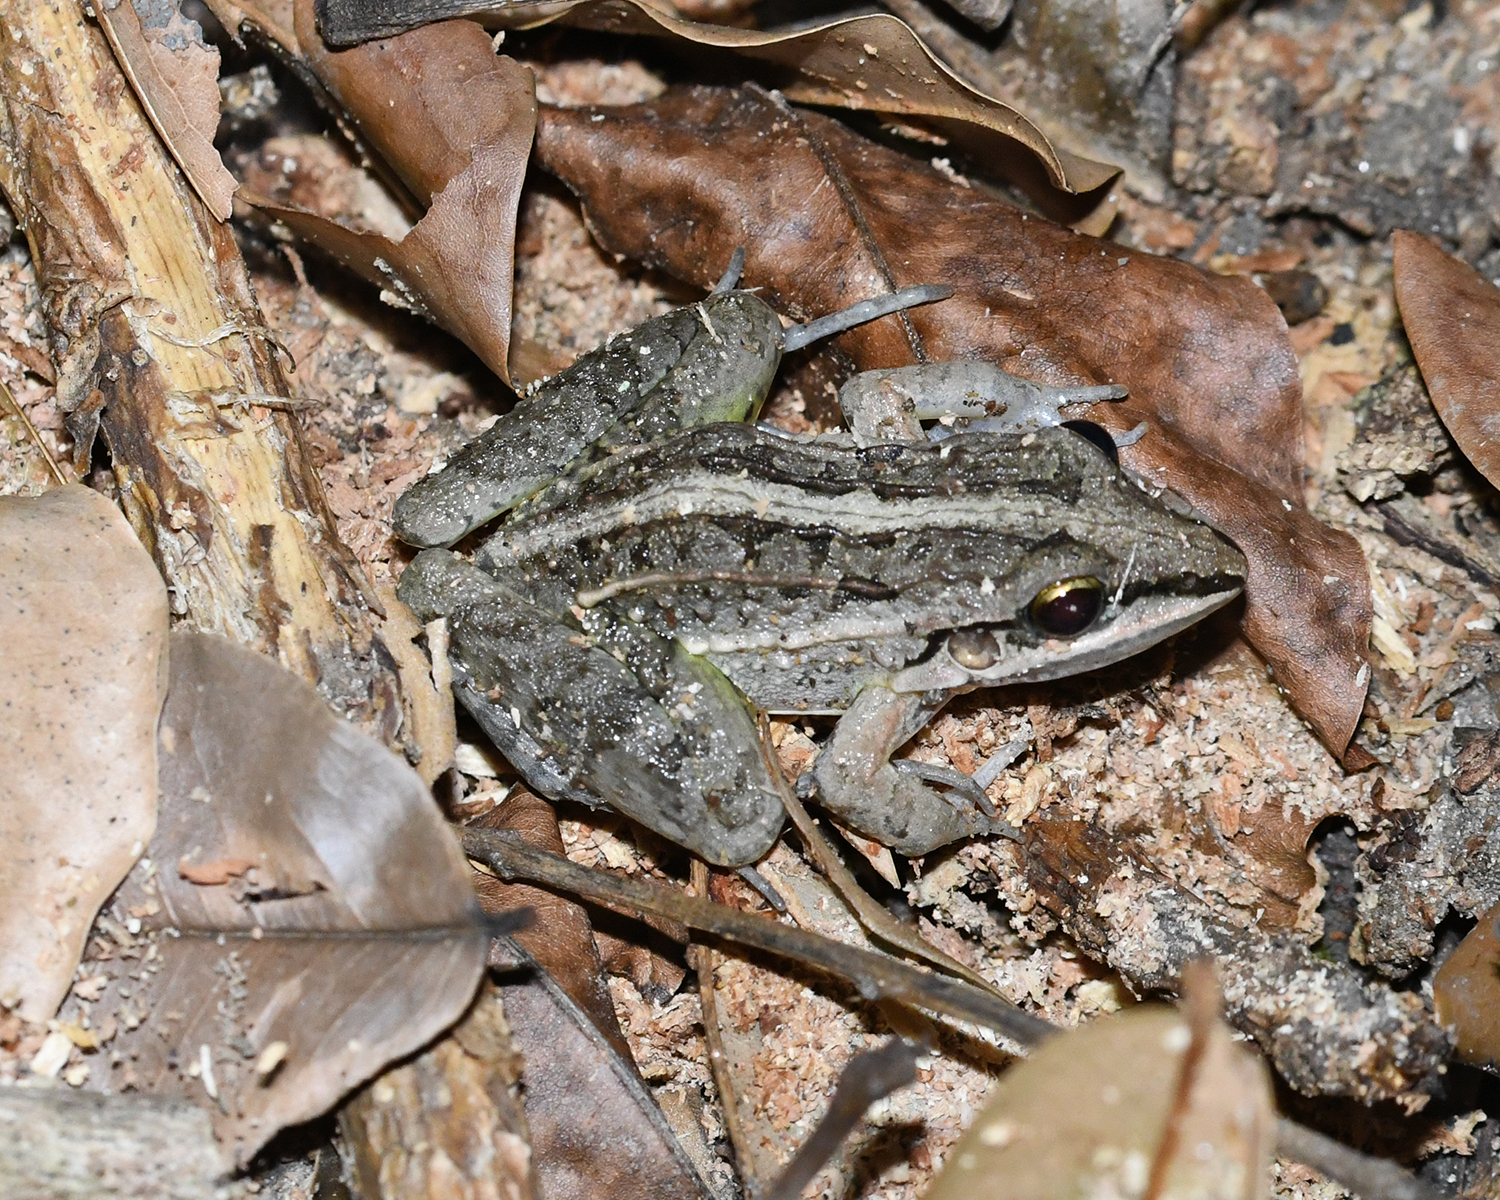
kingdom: Animalia
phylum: Chordata
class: Amphibia
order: Anura
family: Leptodactylidae
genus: Leptodactylus
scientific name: Leptodactylus fuscus
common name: Rufous frog
